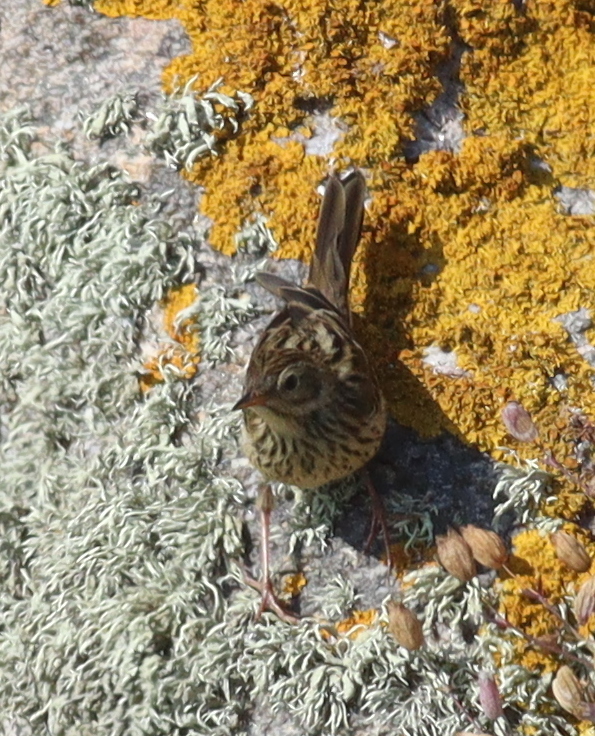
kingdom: Animalia
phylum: Chordata
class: Aves
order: Passeriformes
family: Motacillidae
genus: Anthus
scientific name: Anthus pratensis
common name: Meadow pipit
